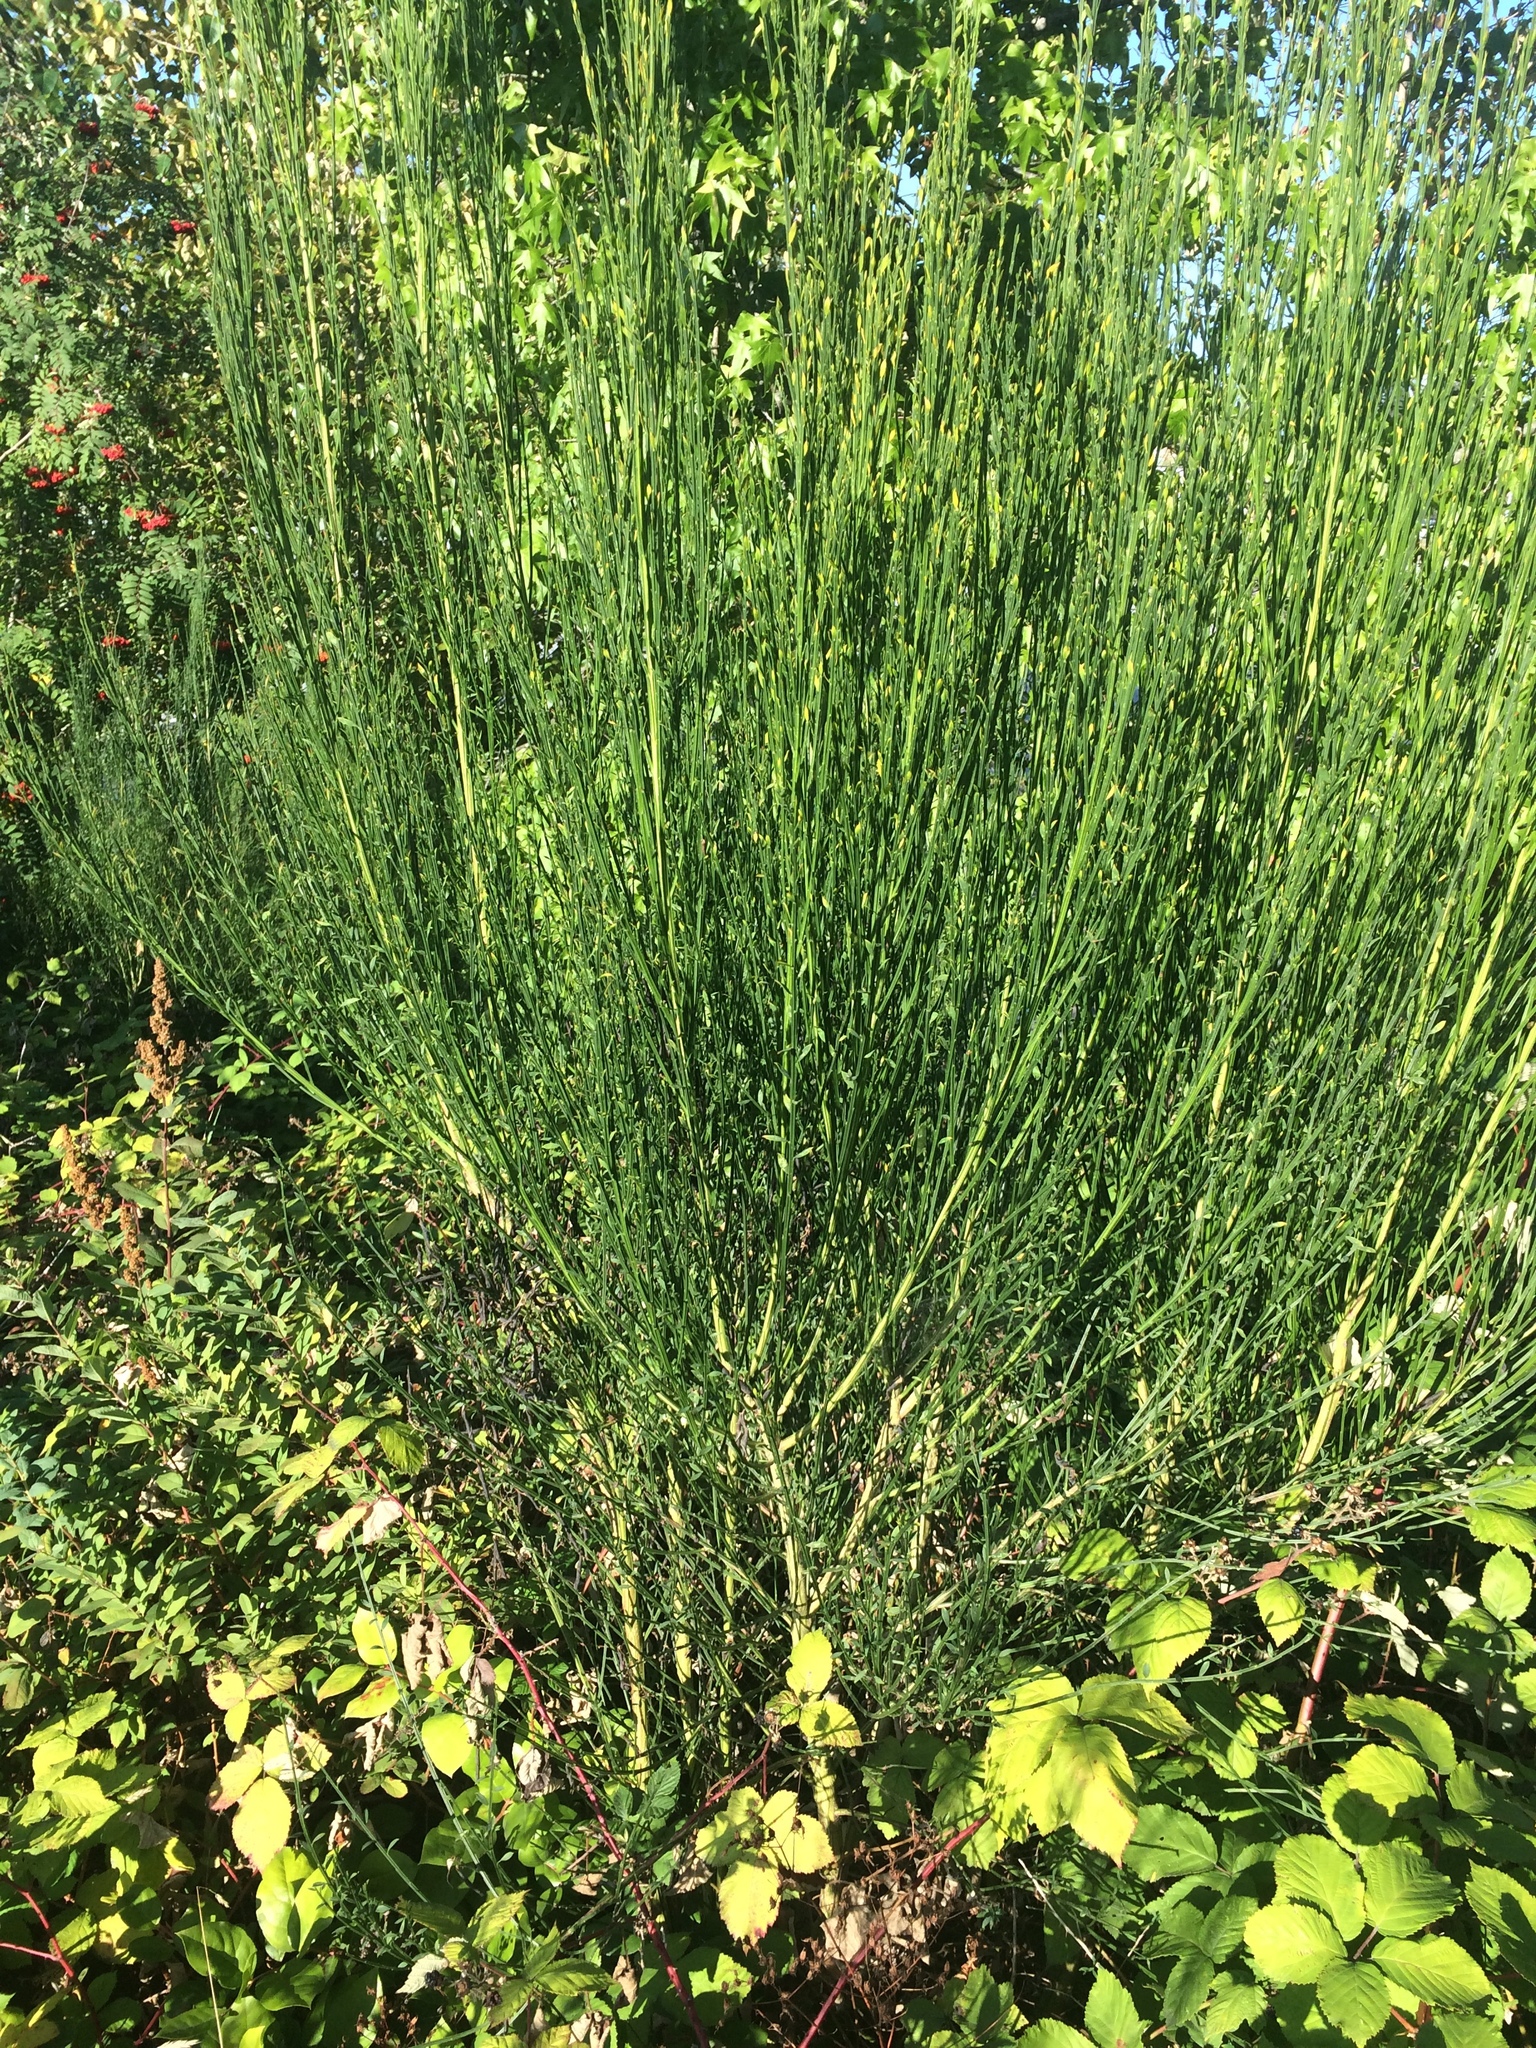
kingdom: Plantae
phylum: Tracheophyta
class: Magnoliopsida
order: Fabales
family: Fabaceae
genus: Cytisus
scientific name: Cytisus scoparius
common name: Scotch broom
